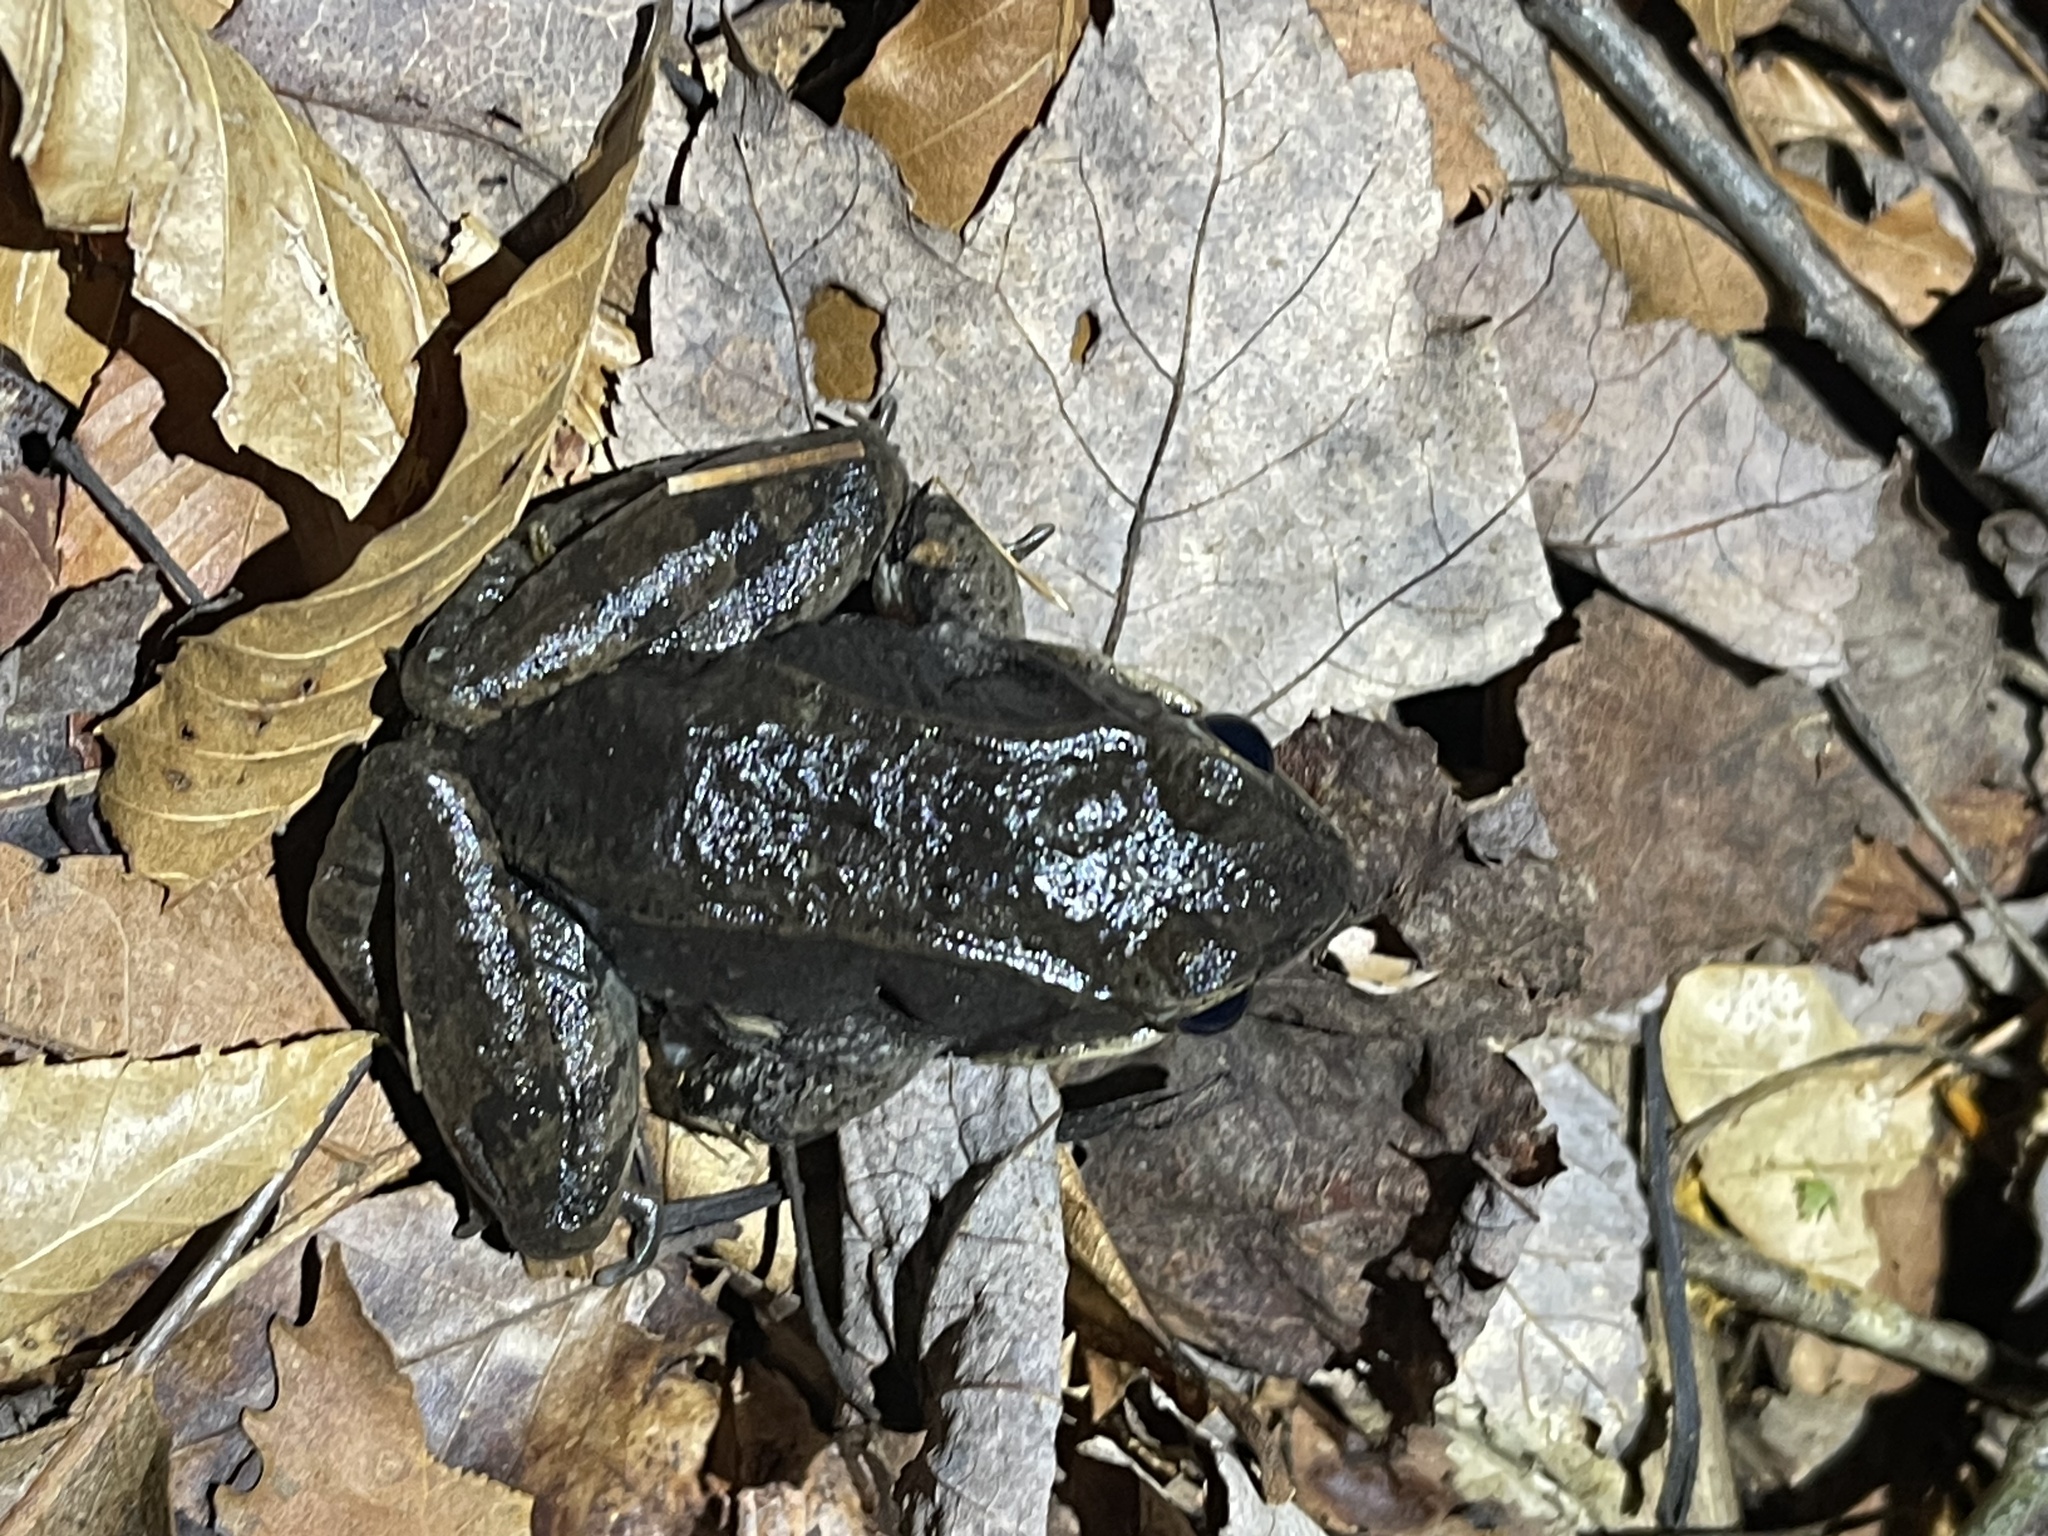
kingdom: Animalia
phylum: Chordata
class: Amphibia
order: Anura
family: Ranidae
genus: Lithobates
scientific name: Lithobates sylvaticus
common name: Wood frog
